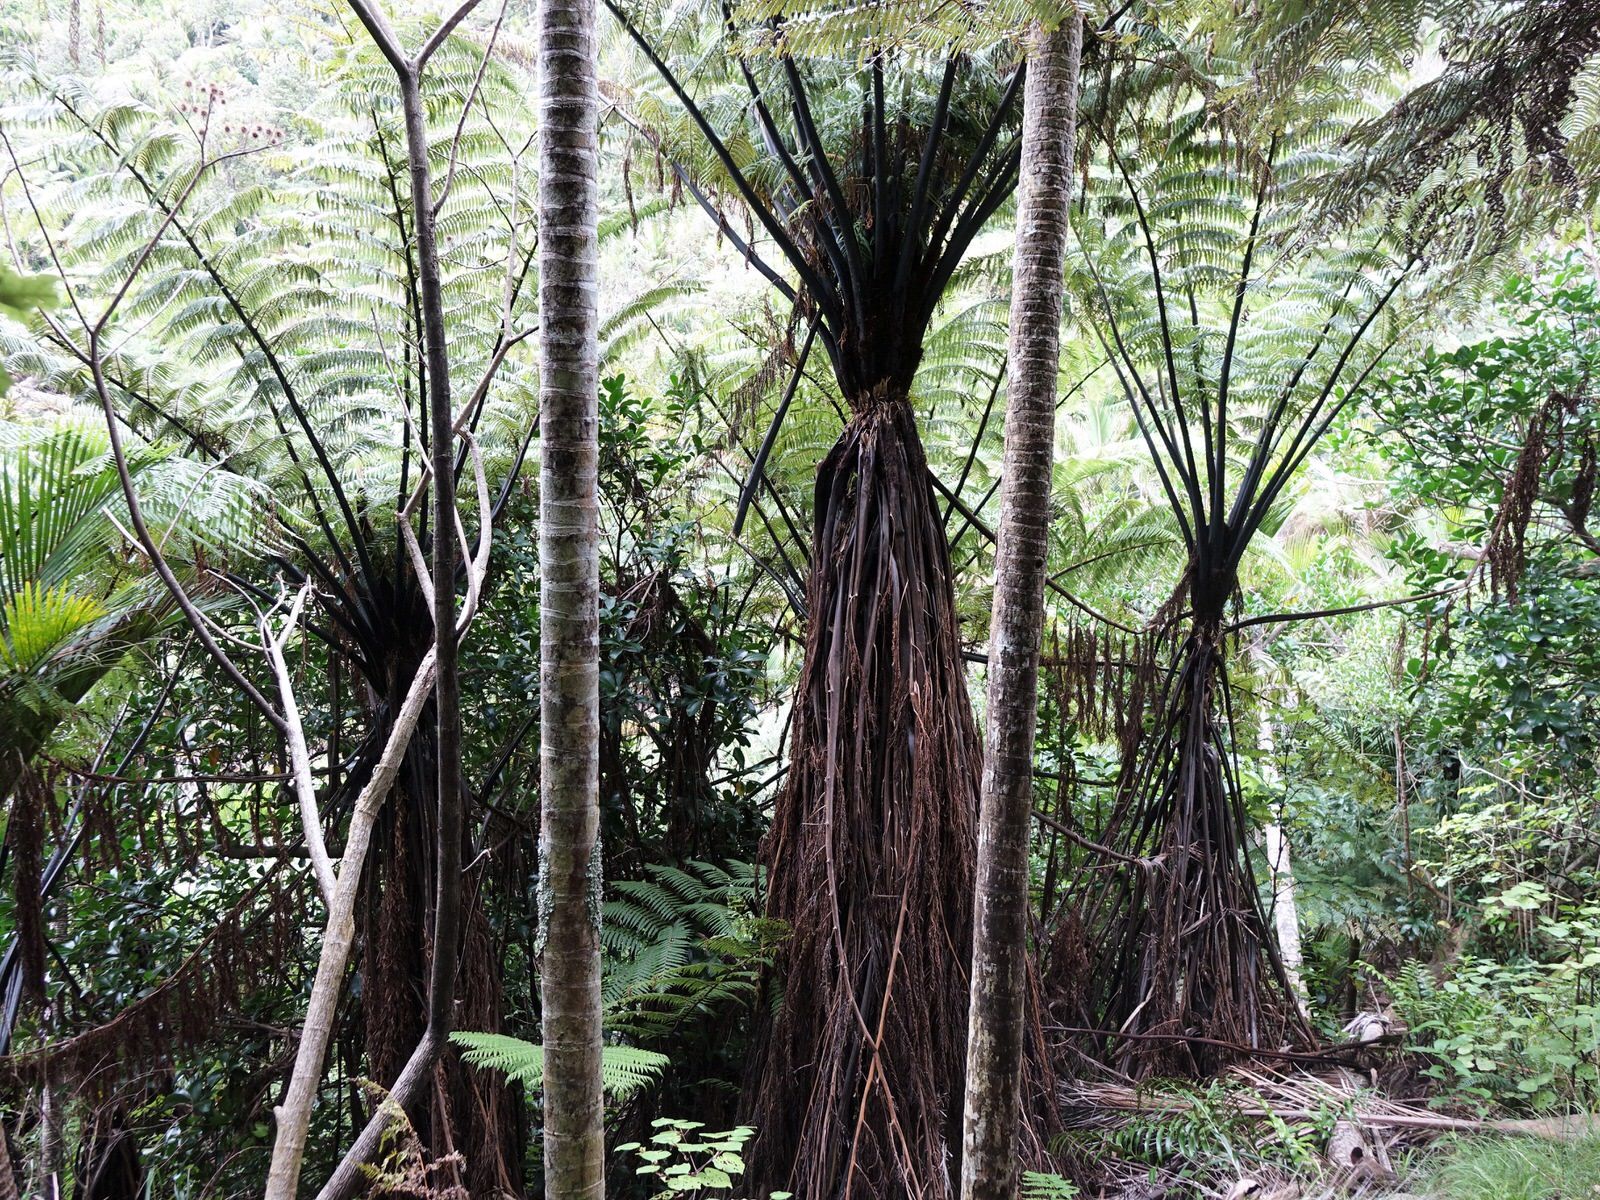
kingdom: Plantae
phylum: Tracheophyta
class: Polypodiopsida
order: Cyatheales
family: Cyatheaceae
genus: Sphaeropteris
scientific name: Sphaeropteris medullaris
